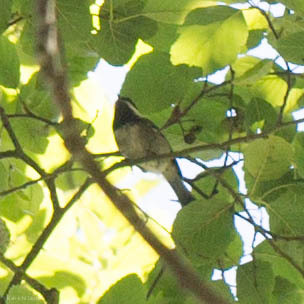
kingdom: Animalia
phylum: Chordata
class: Aves
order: Passeriformes
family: Paridae
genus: Poecile
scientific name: Poecile rufescens
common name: Chestnut-backed chickadee
